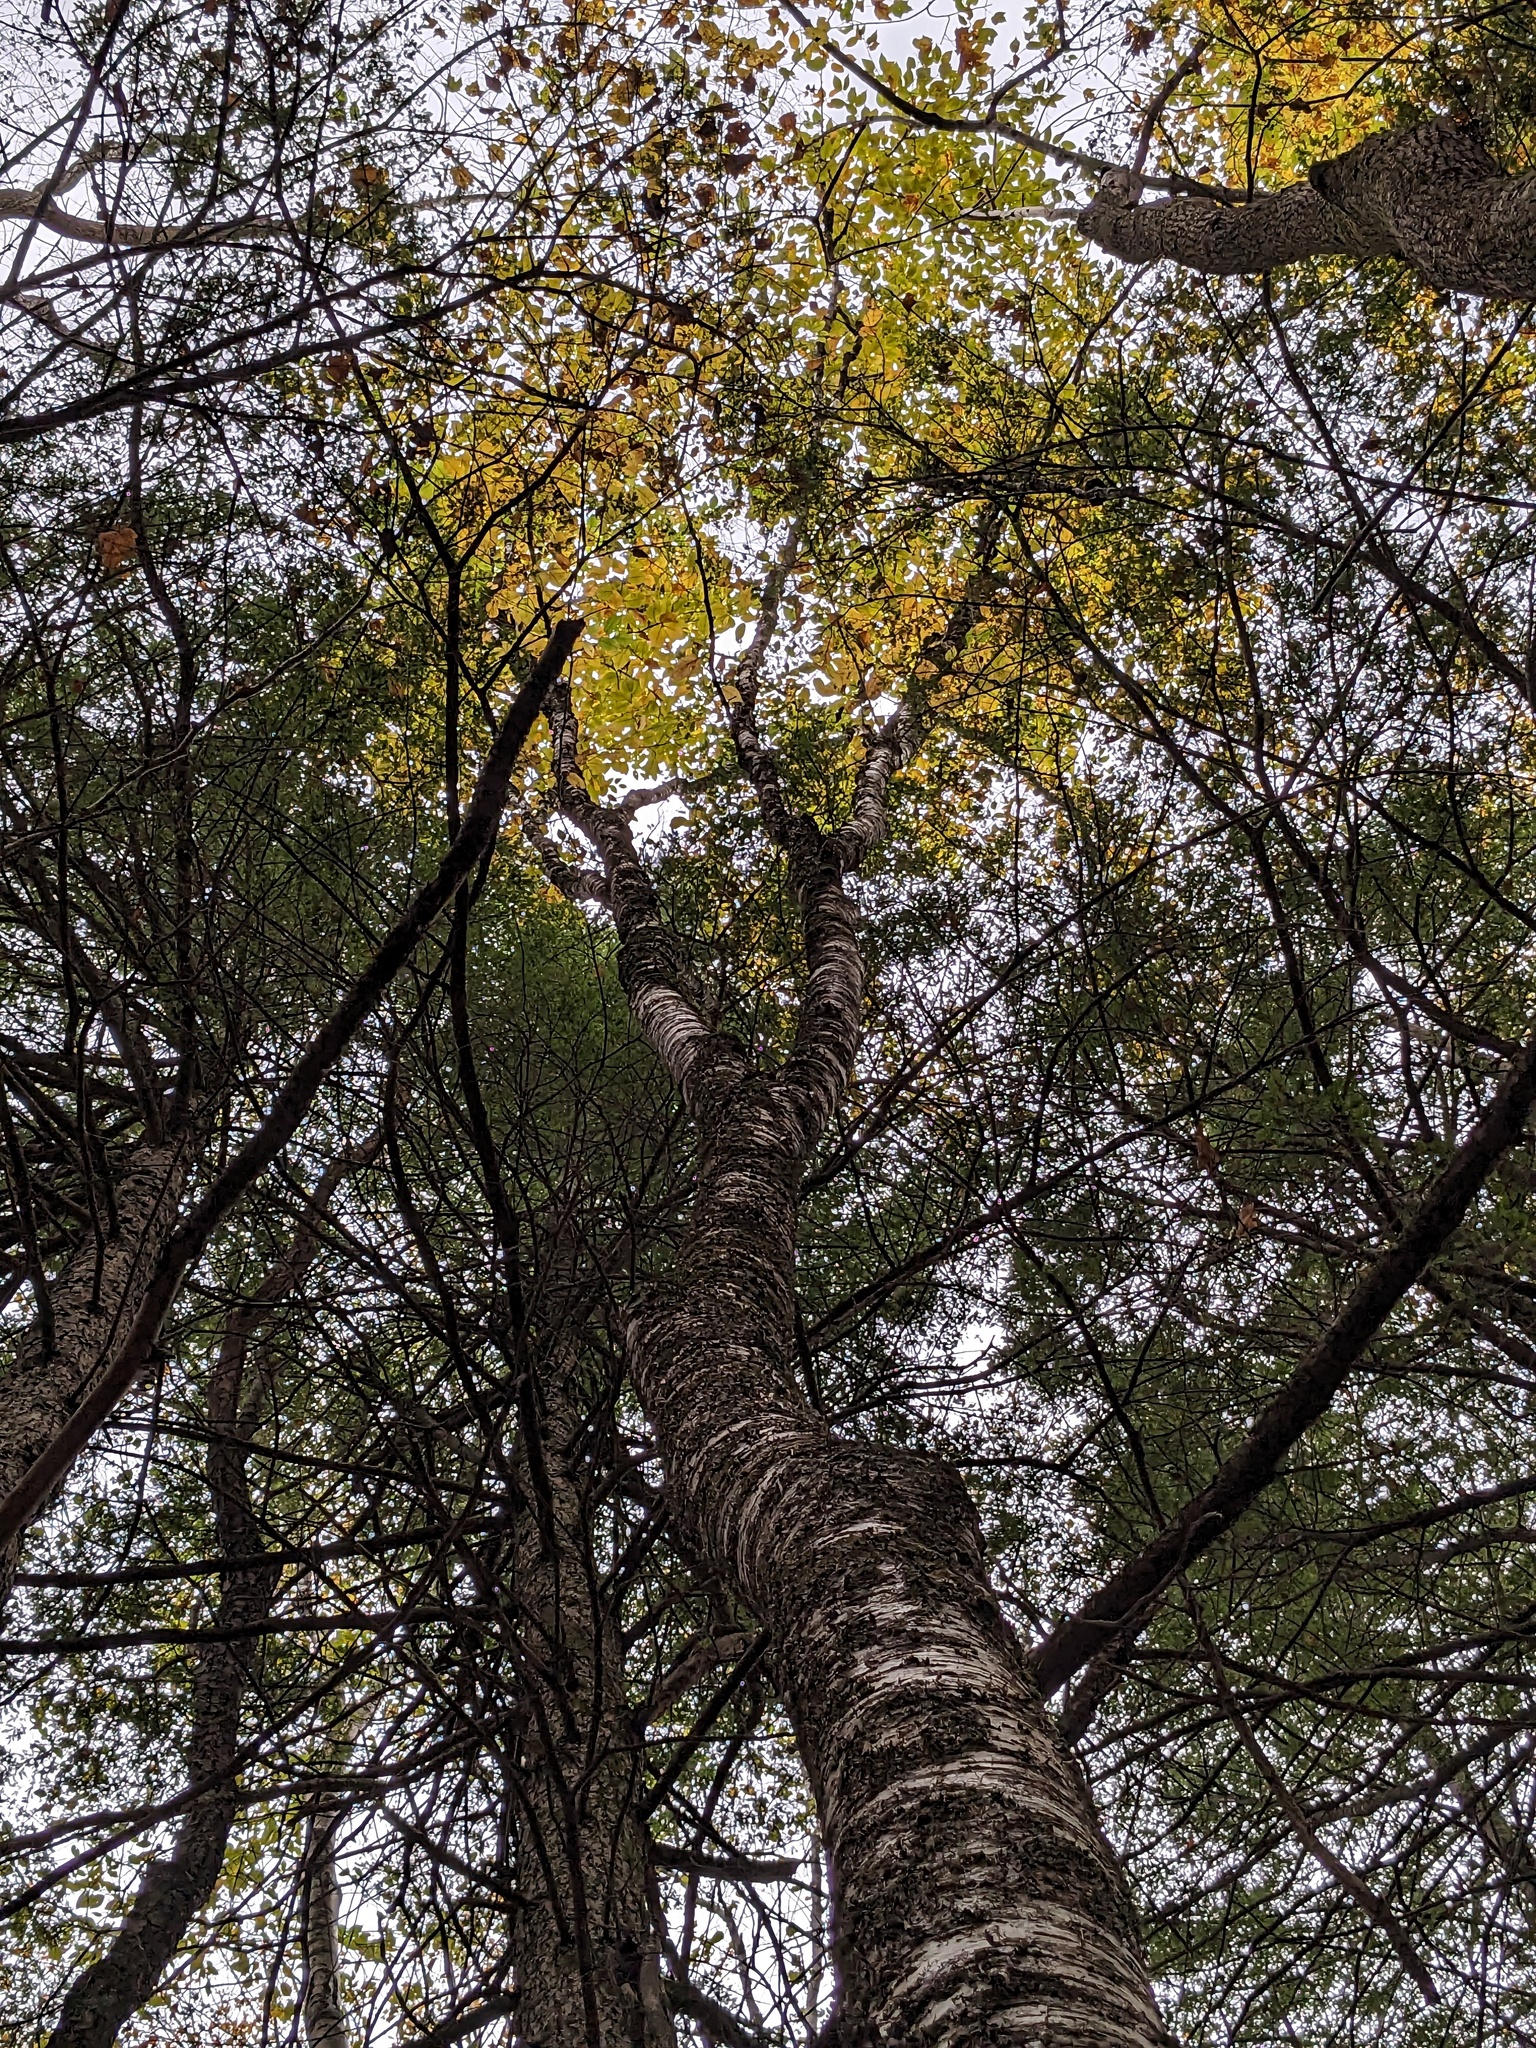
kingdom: Plantae
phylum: Tracheophyta
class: Magnoliopsida
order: Fagales
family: Betulaceae
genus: Betula
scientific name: Betula alleghaniensis
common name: Yellow birch
